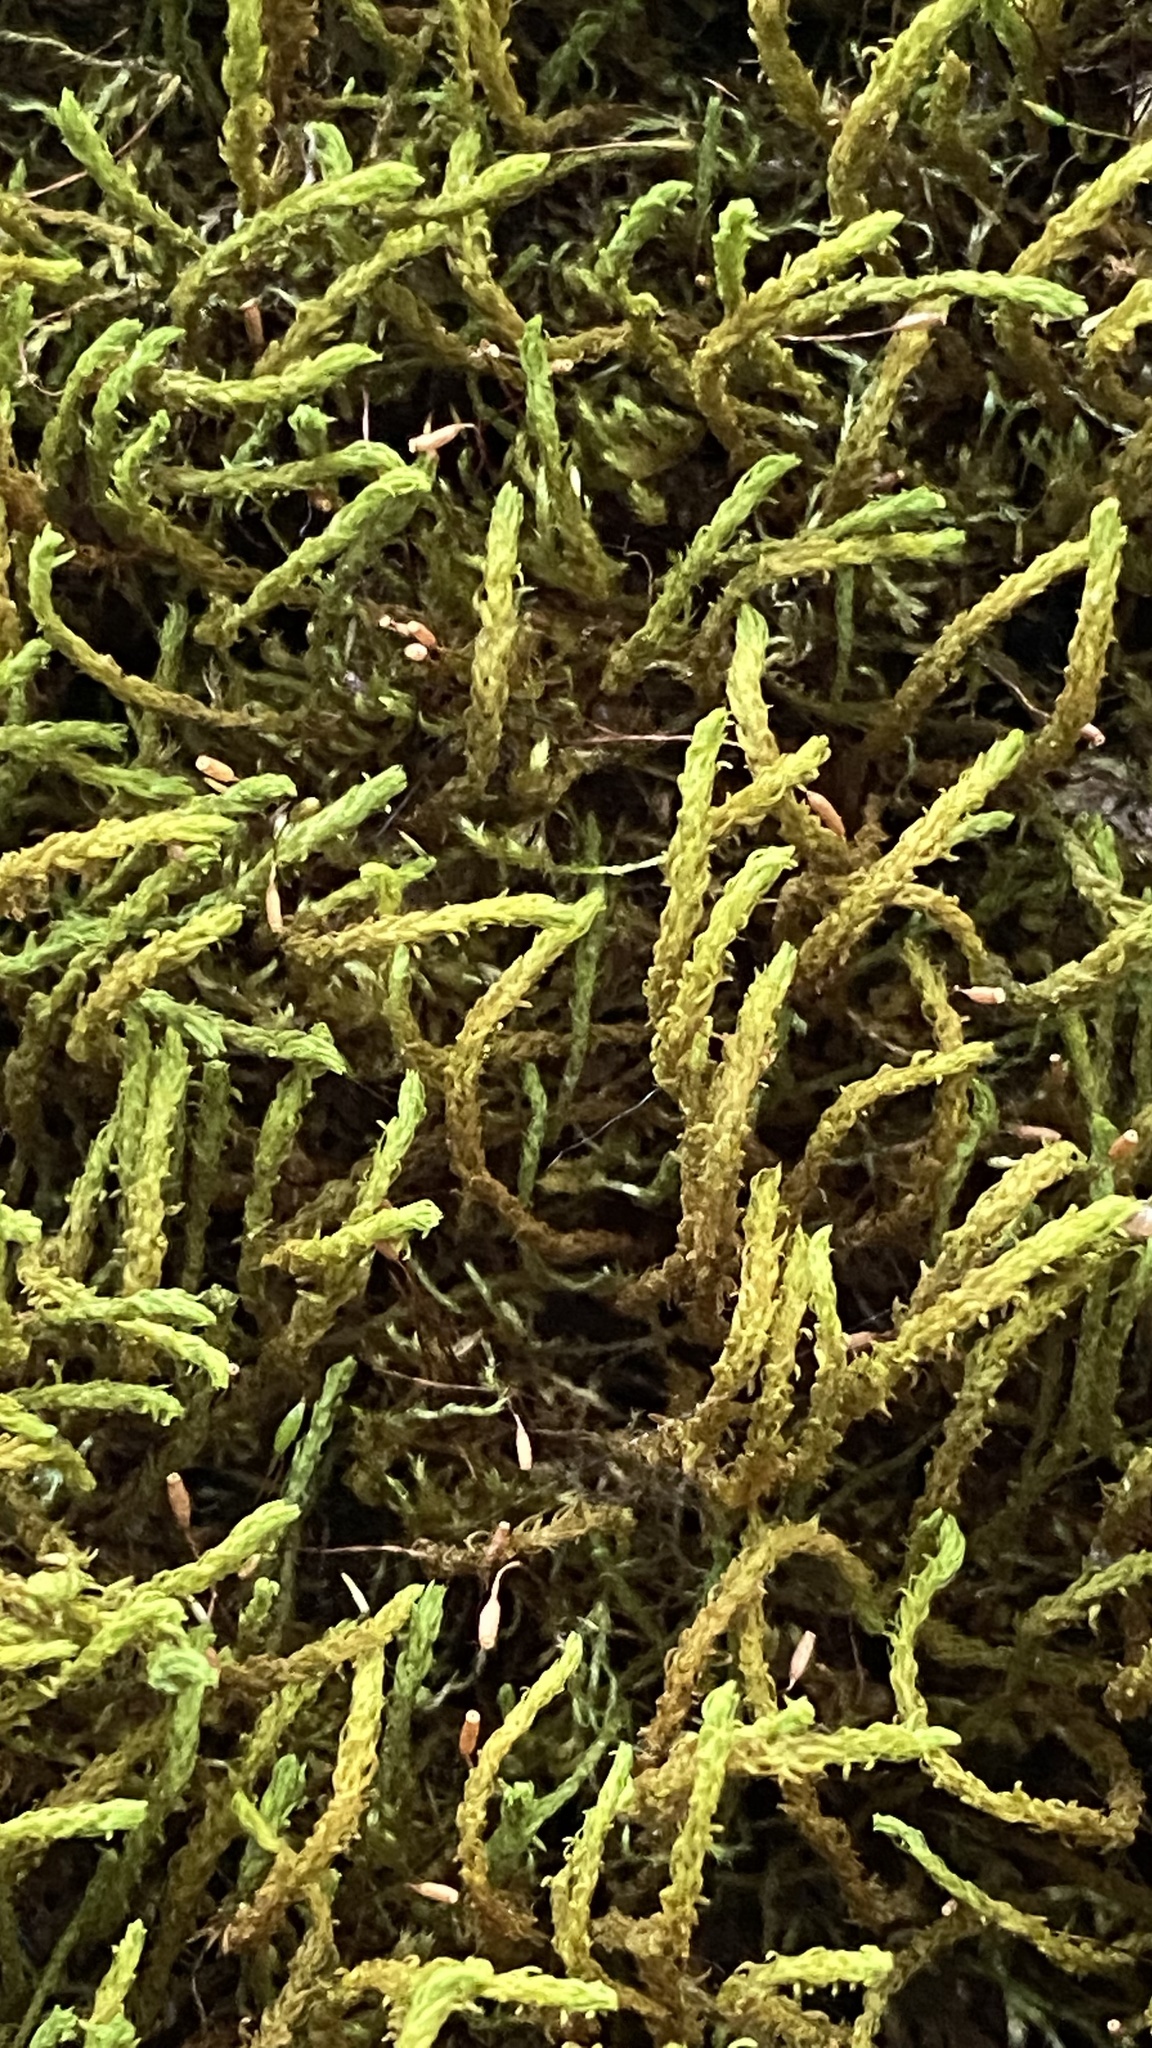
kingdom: Plantae
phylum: Bryophyta
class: Bryopsida
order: Hypnales
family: Anomodontaceae
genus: Anomodon
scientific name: Anomodon viticulosus
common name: Tall anomodon
